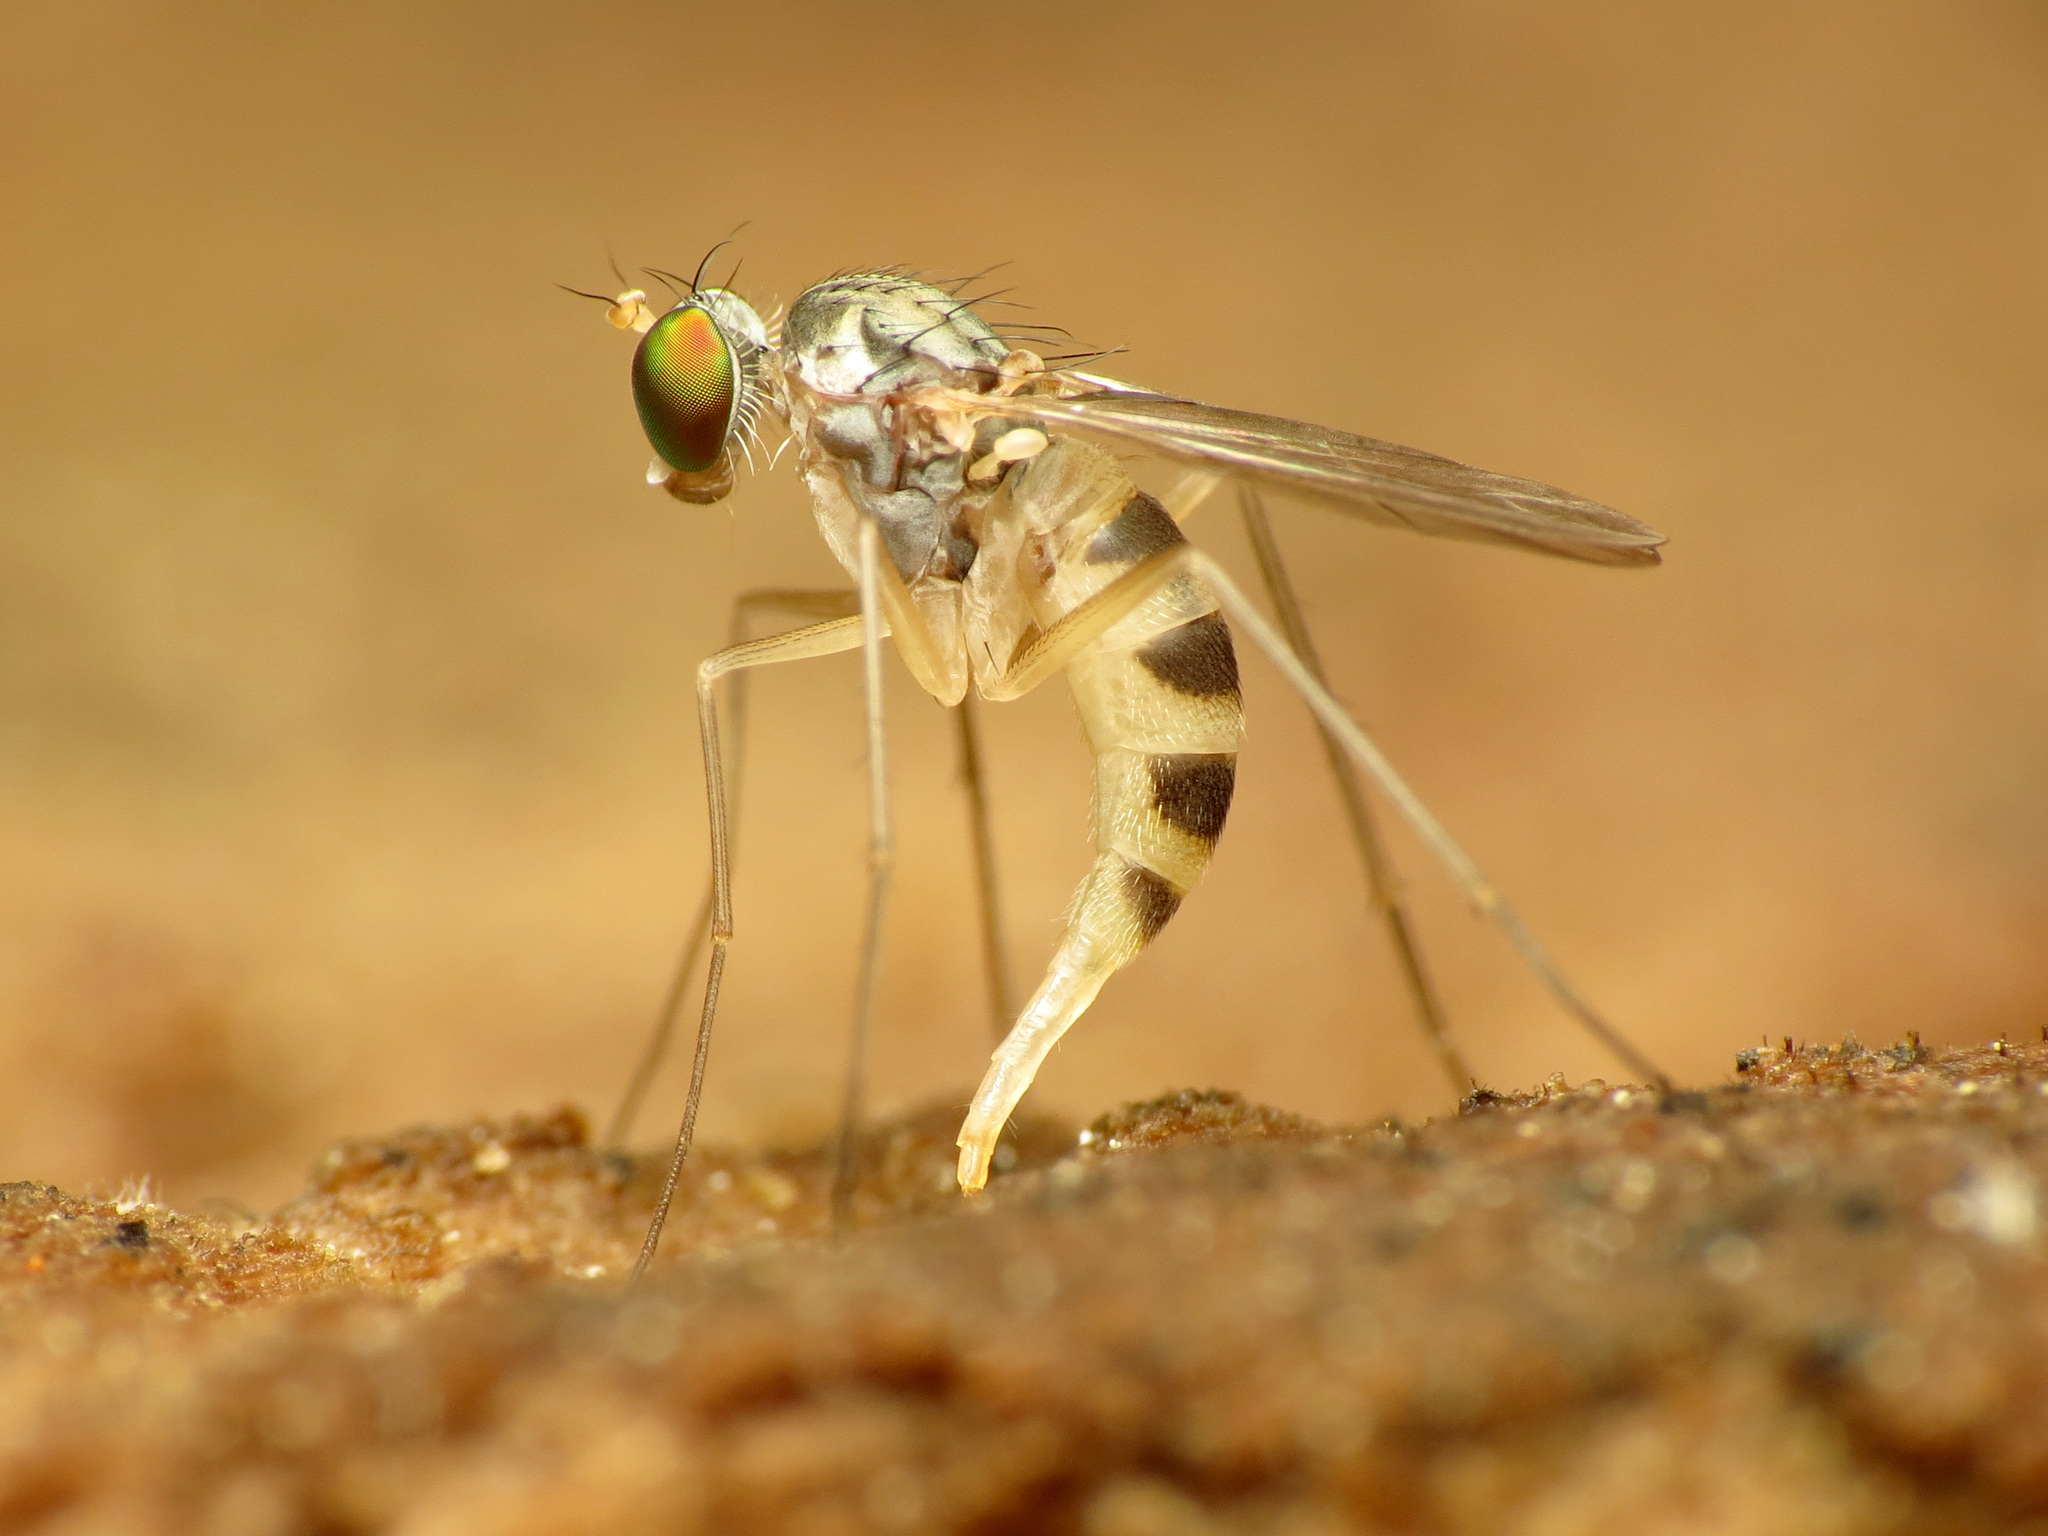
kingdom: Animalia
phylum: Arthropoda
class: Insecta
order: Diptera
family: Dolichopodidae
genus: Neurigona
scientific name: Neurigona arcuata
